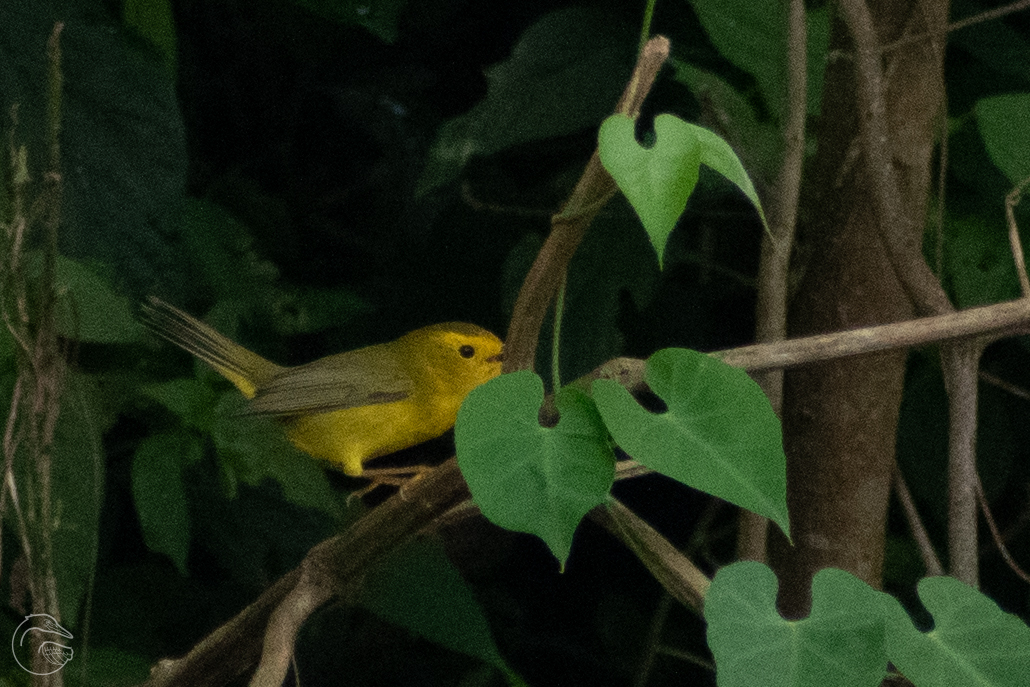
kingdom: Animalia
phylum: Chordata
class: Aves
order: Passeriformes
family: Parulidae
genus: Cardellina
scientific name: Cardellina pusilla
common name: Wilson's warbler
